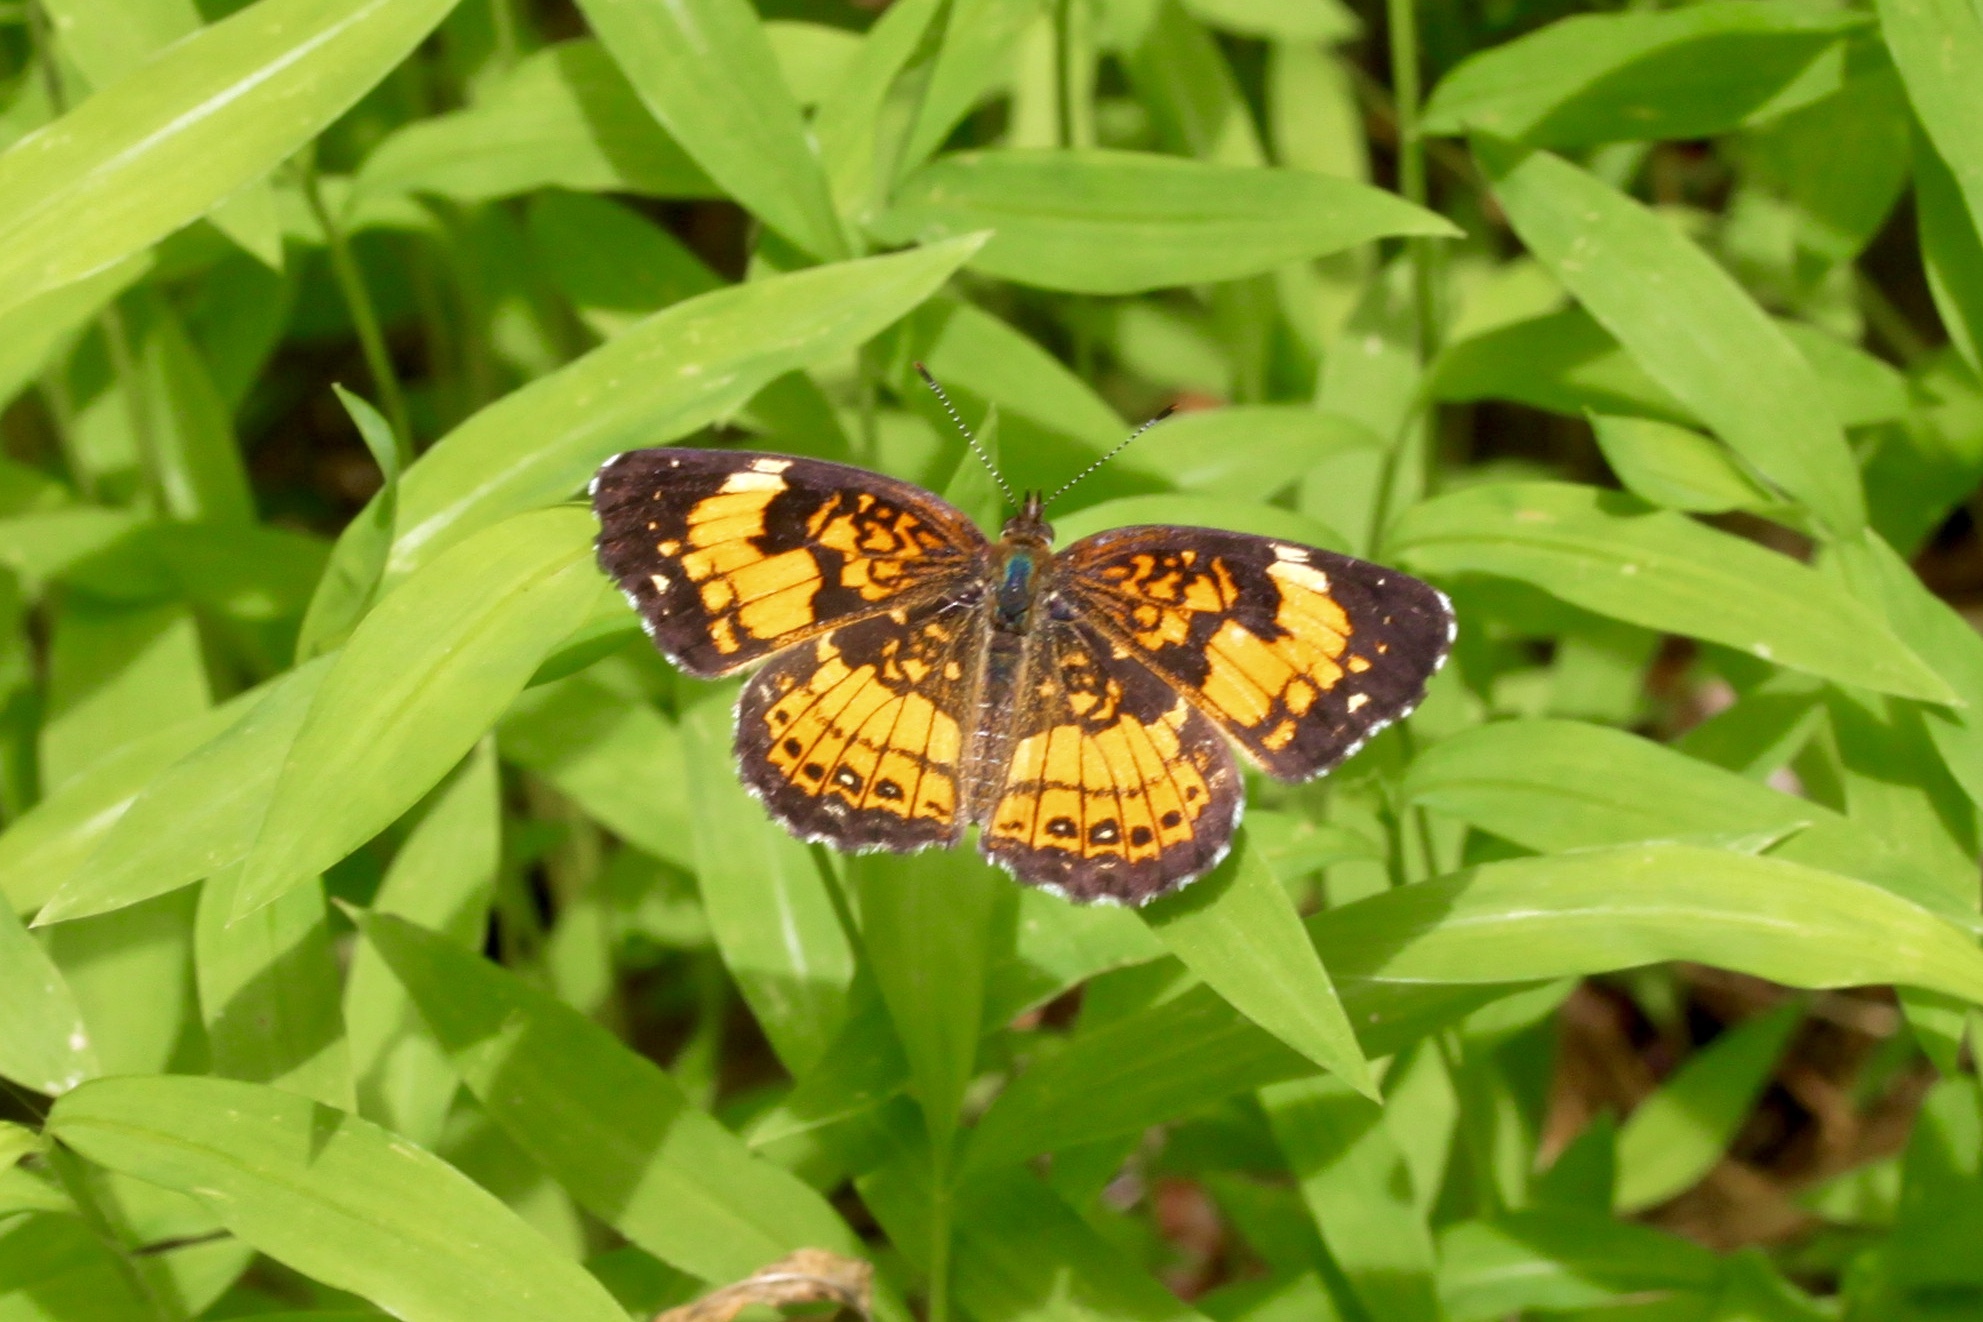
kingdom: Animalia
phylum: Arthropoda
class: Insecta
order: Lepidoptera
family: Nymphalidae
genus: Chlosyne
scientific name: Chlosyne nycteis
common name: Silvery checkerspot
